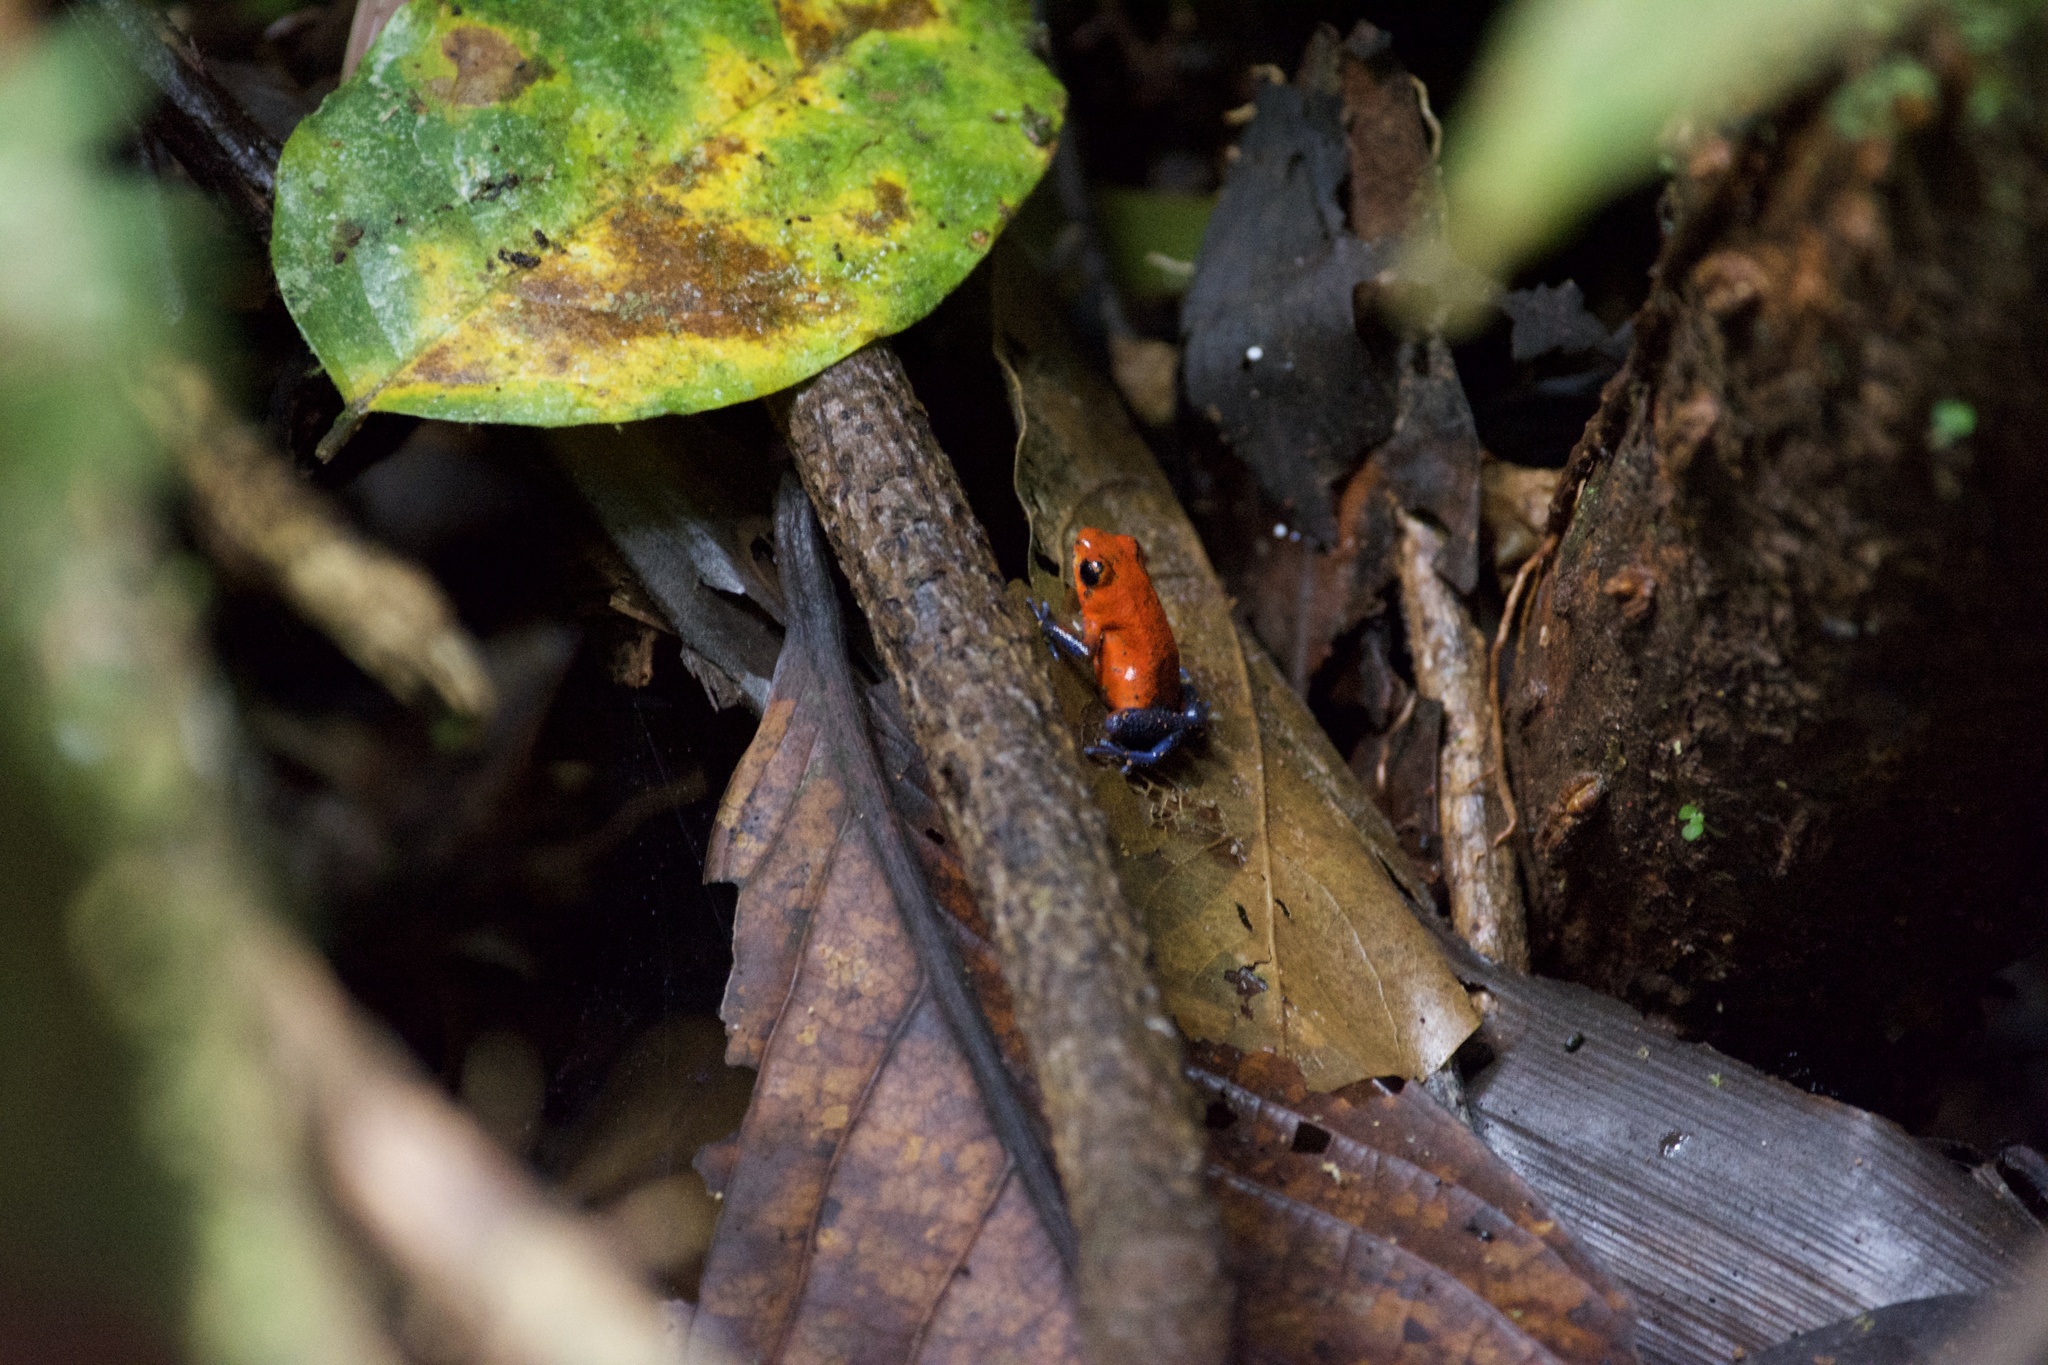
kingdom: Animalia
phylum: Chordata
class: Amphibia
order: Anura
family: Dendrobatidae
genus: Oophaga
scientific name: Oophaga pumilio
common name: Flaming poison frog
